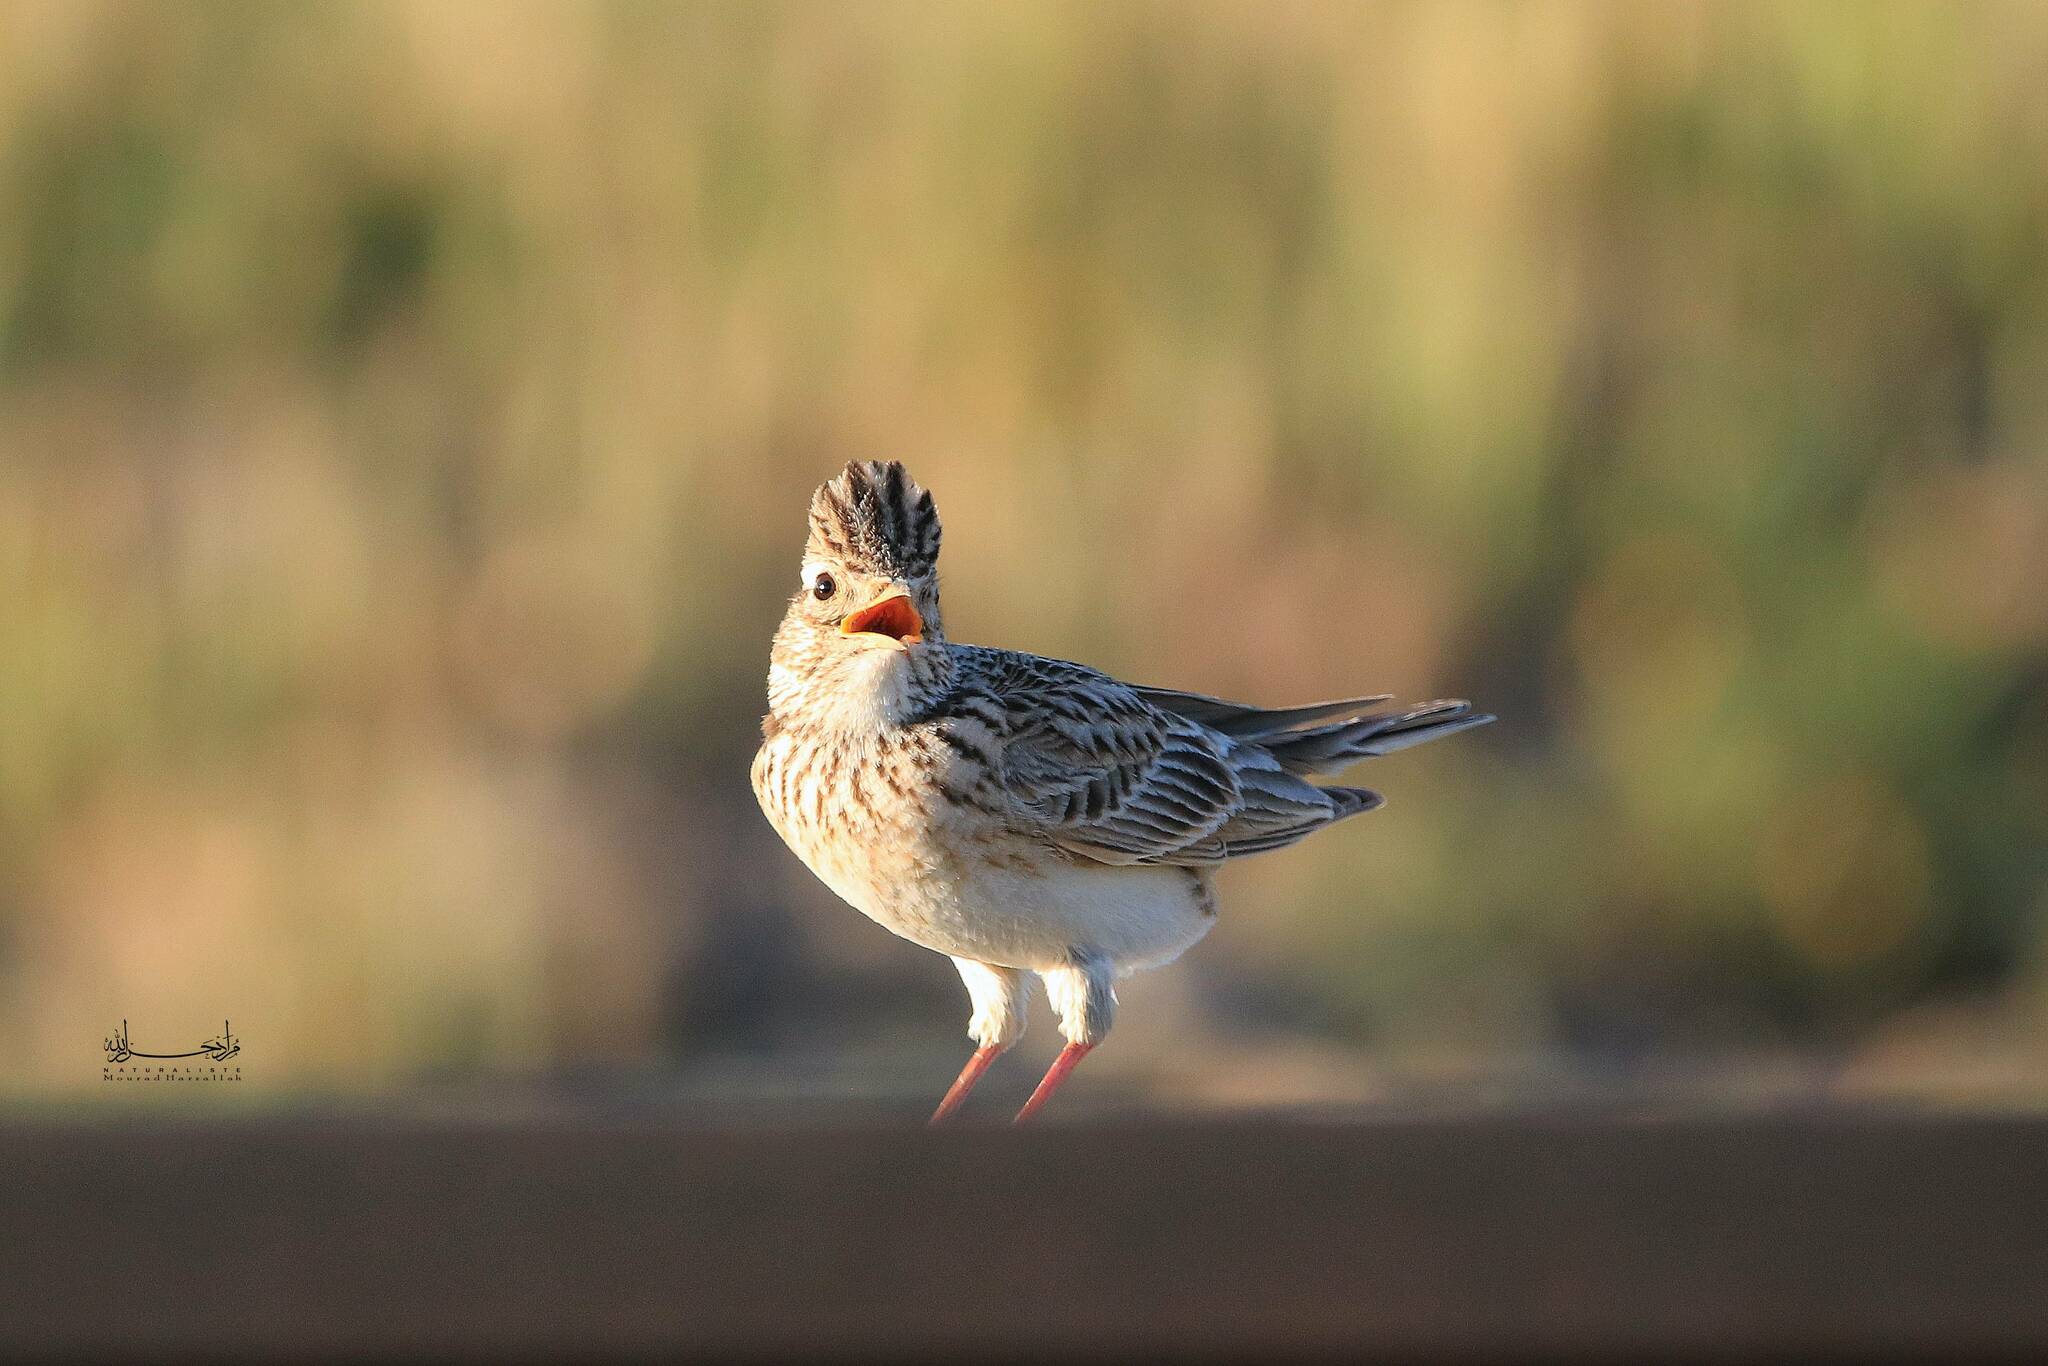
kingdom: Animalia
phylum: Chordata
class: Aves
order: Passeriformes
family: Alaudidae
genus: Alauda
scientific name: Alauda arvensis
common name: Eurasian skylark
